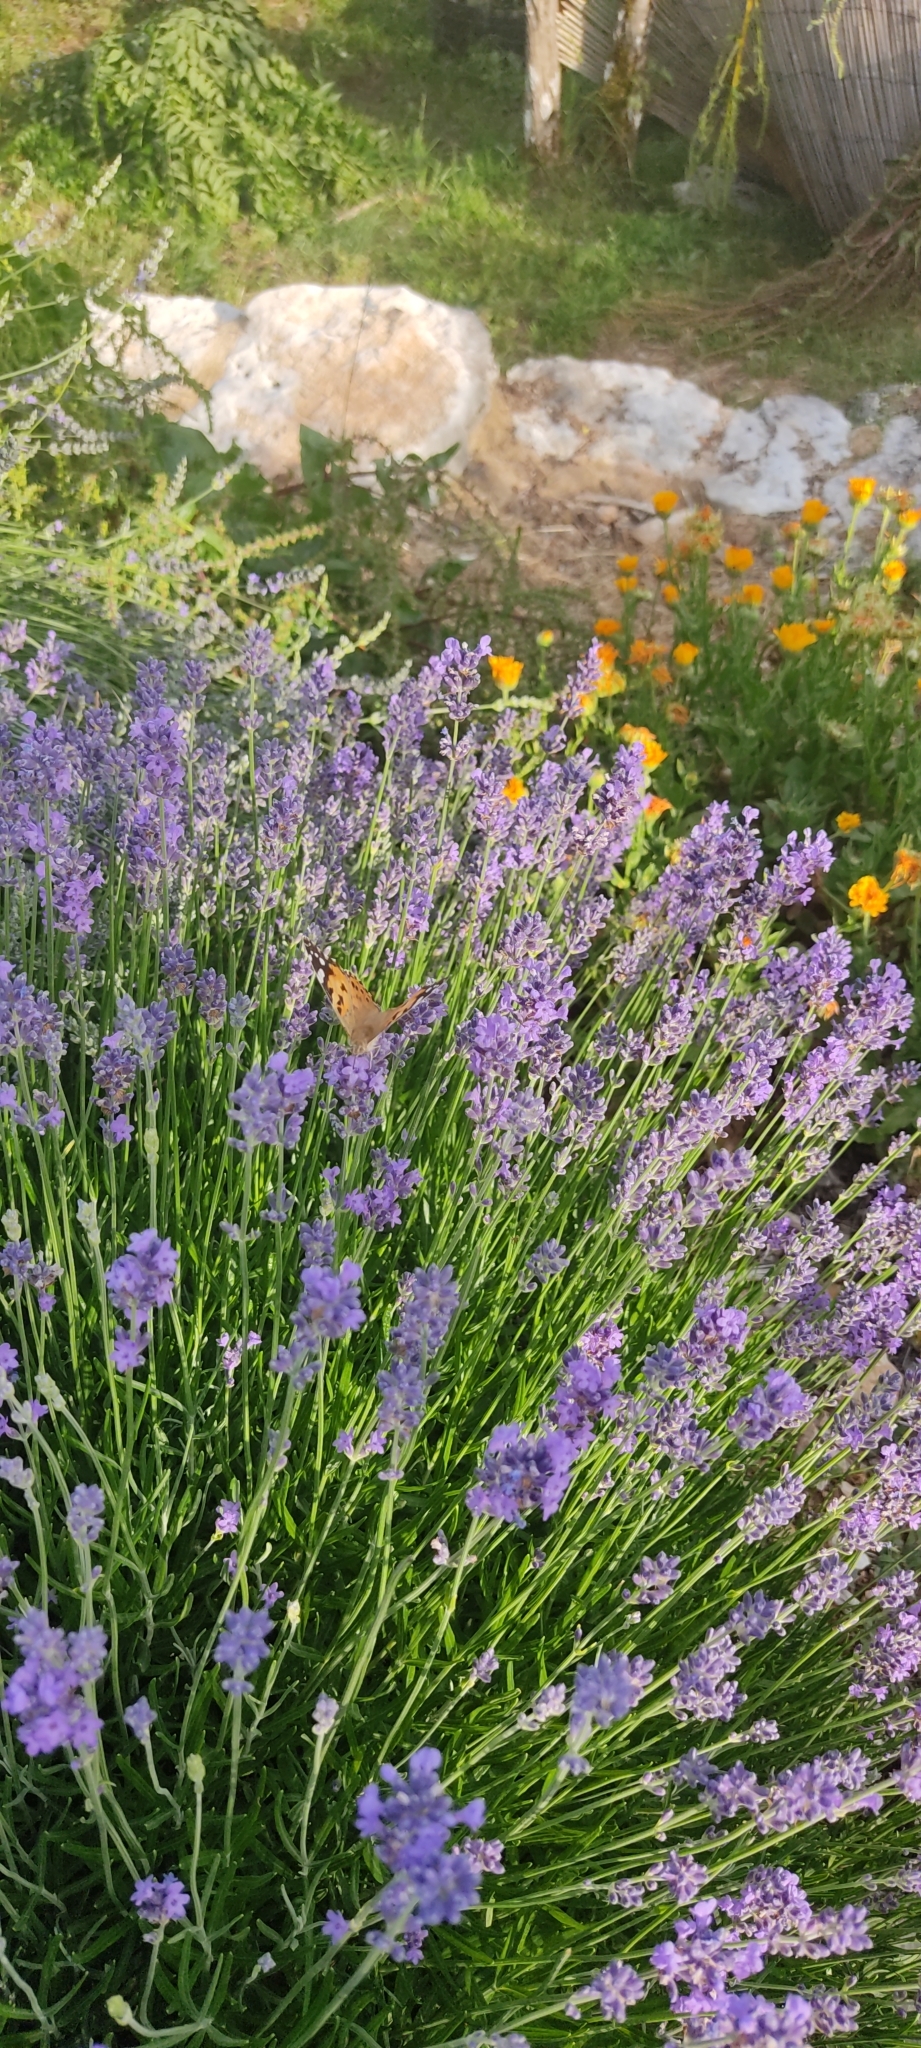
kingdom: Animalia
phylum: Arthropoda
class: Insecta
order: Lepidoptera
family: Nymphalidae
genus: Vanessa
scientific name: Vanessa cardui
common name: Painted lady
